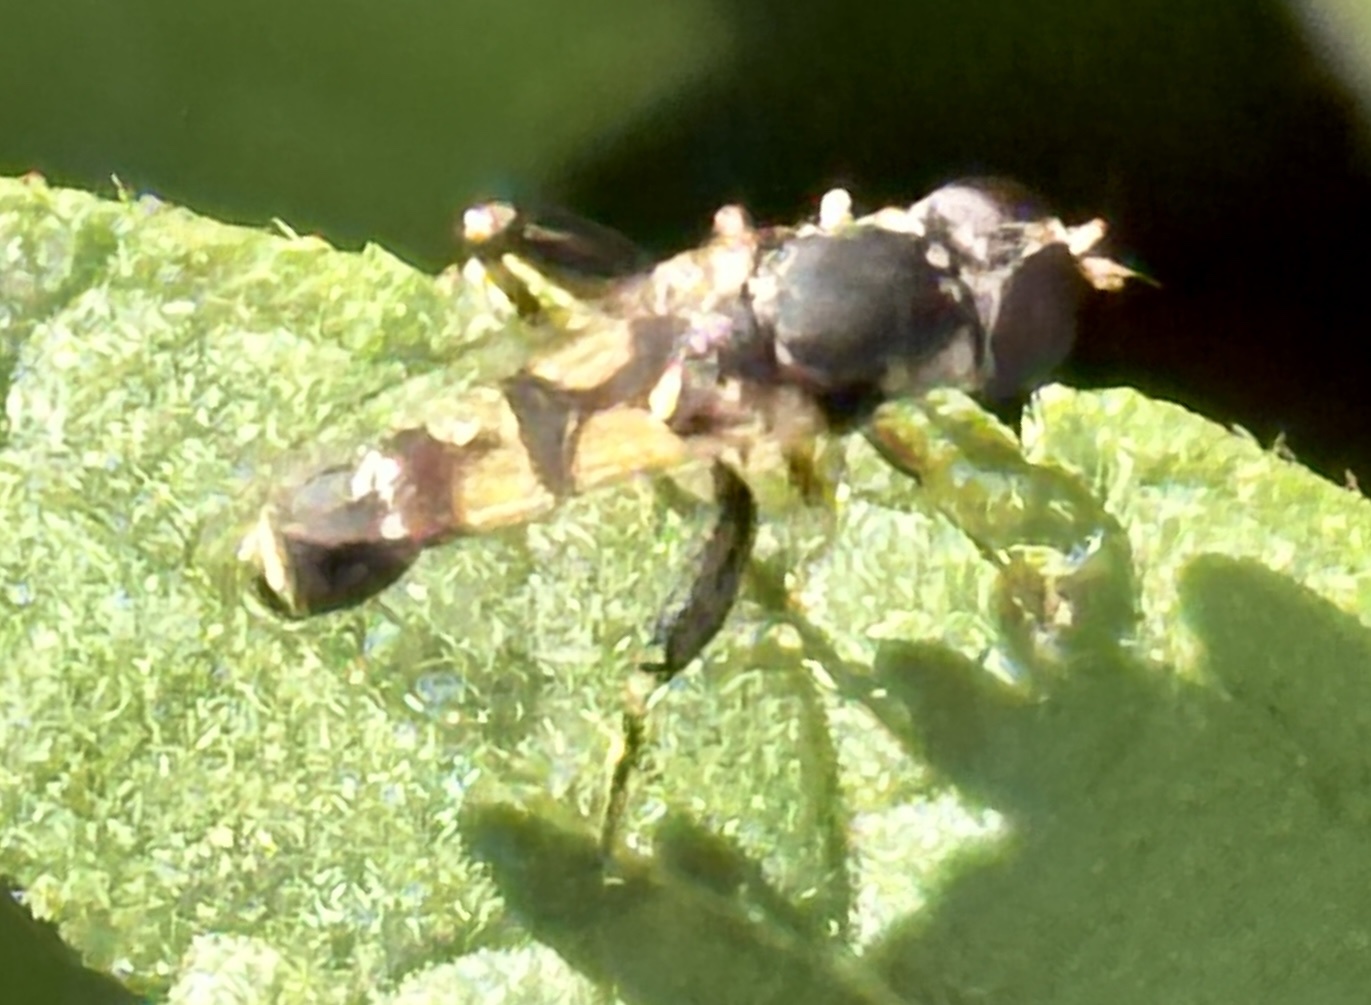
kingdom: Animalia
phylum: Arthropoda
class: Insecta
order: Diptera
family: Syrphidae
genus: Syritta
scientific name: Syritta pipiens
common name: Hover fly
